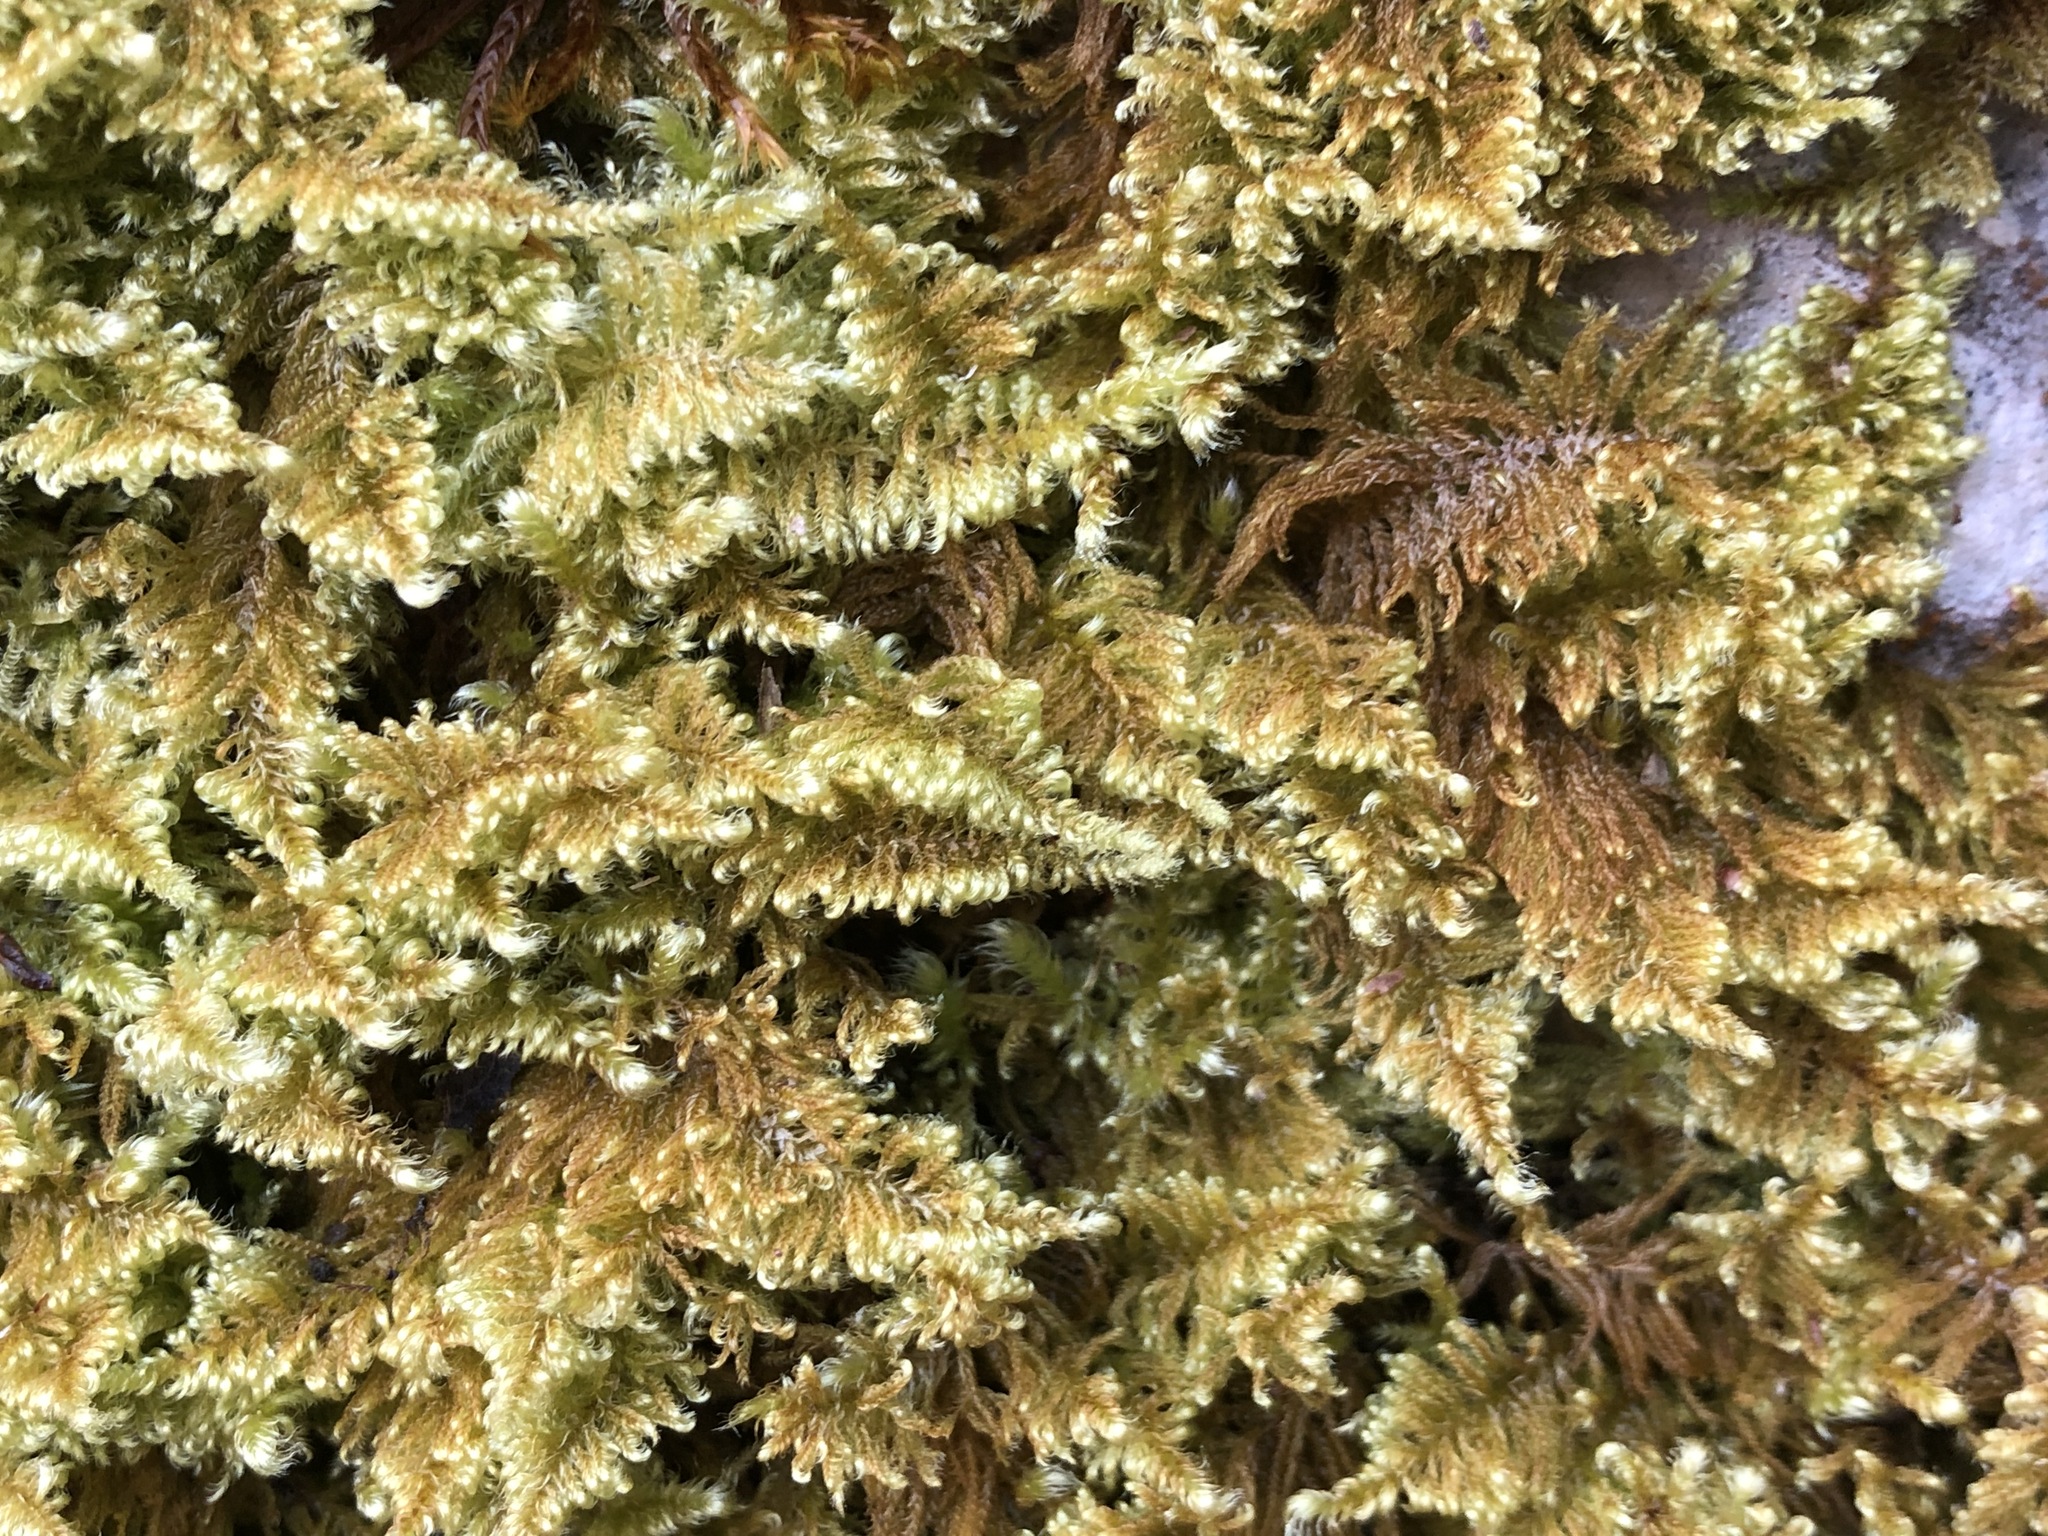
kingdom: Plantae
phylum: Bryophyta
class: Bryopsida
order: Hypnales
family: Myuriaceae
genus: Ctenidium
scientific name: Ctenidium molluscum
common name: Chalk comb-moss
